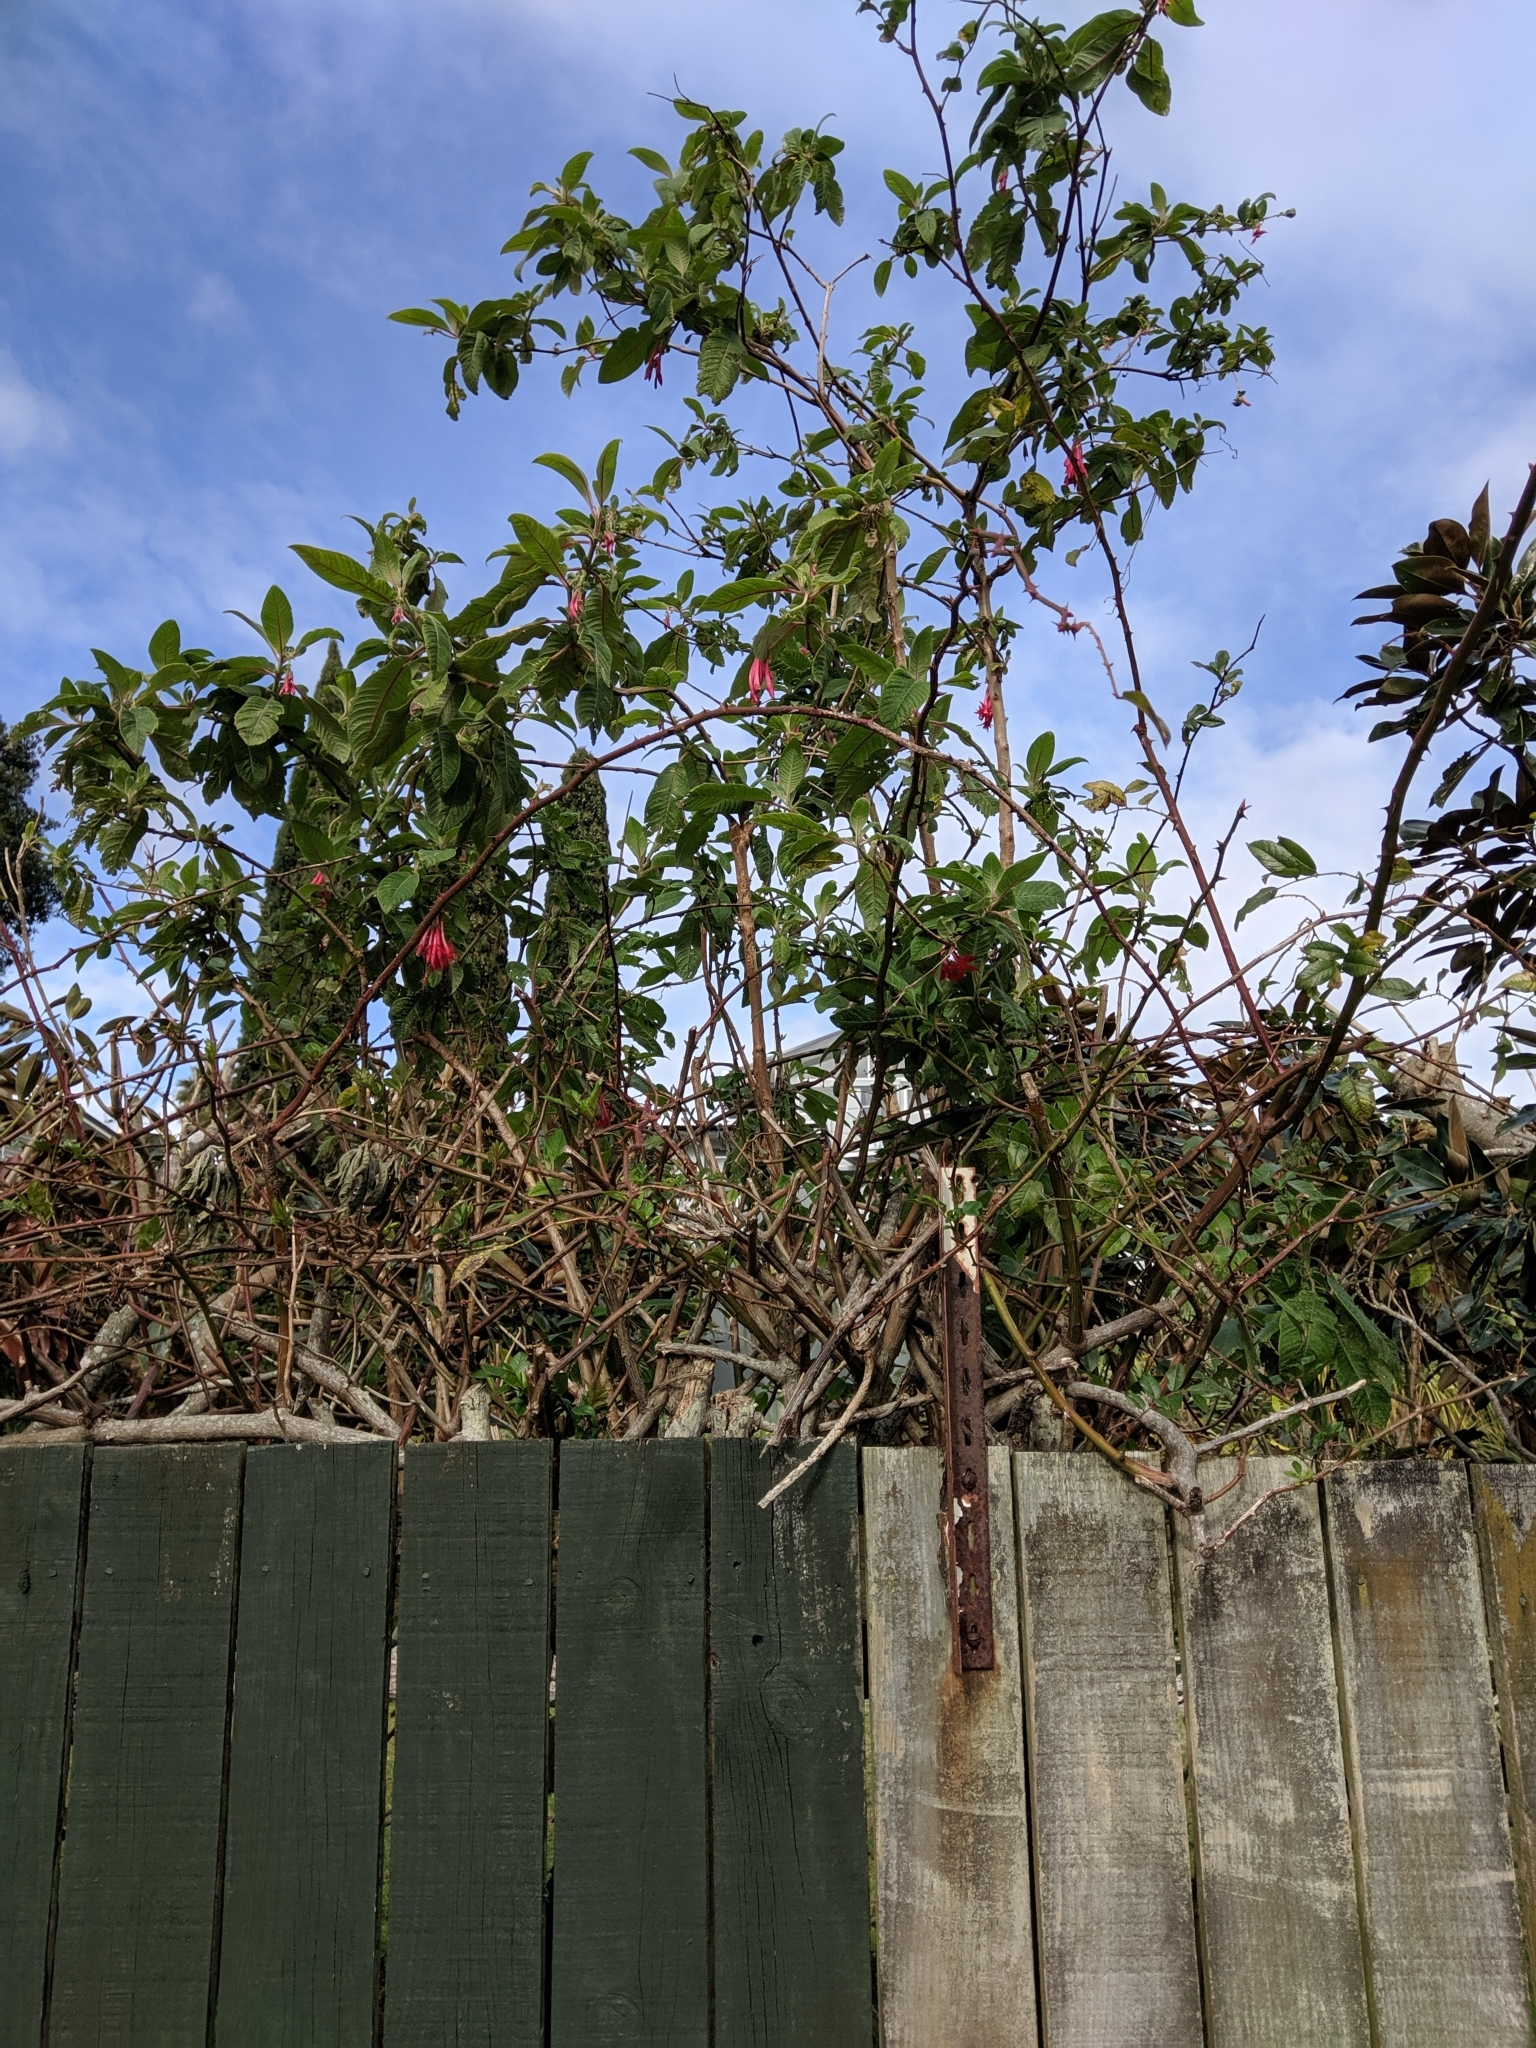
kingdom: Plantae
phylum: Tracheophyta
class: Magnoliopsida
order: Myrtales
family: Onagraceae
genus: Fuchsia
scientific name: Fuchsia boliviana
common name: Bolivian fuchsia
